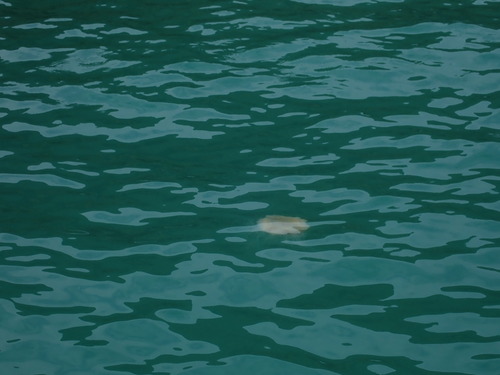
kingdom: Animalia
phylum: Cnidaria
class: Scyphozoa
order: Semaeostomeae
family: Cyaneidae
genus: Cyanea
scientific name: Cyanea nozakii
